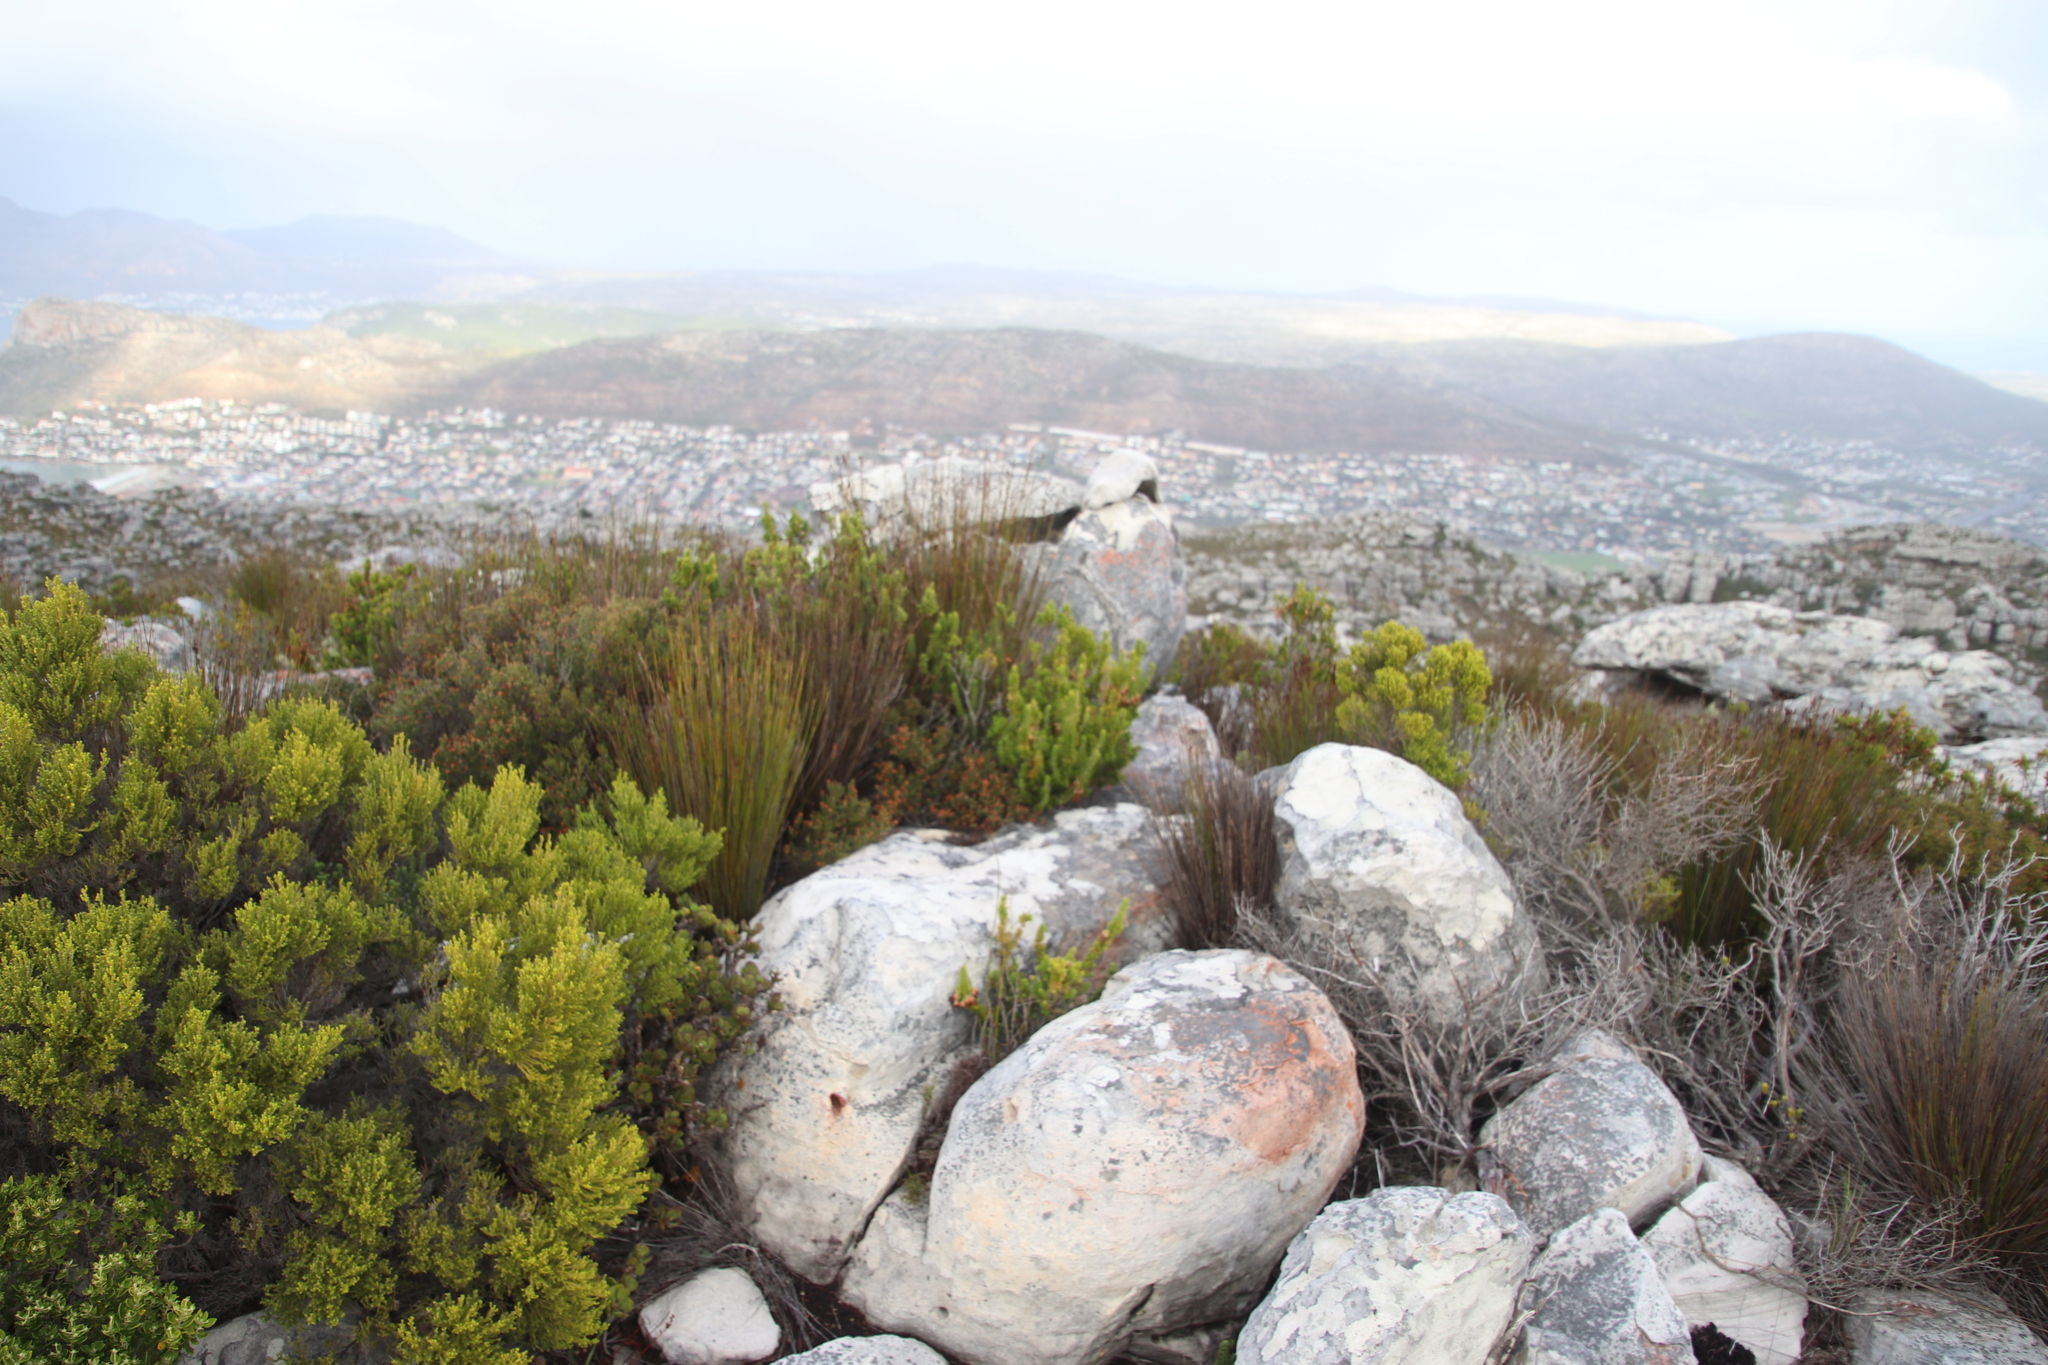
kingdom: Plantae
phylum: Tracheophyta
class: Liliopsida
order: Poales
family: Restionaceae
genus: Elegia
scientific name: Elegia ebracteata
